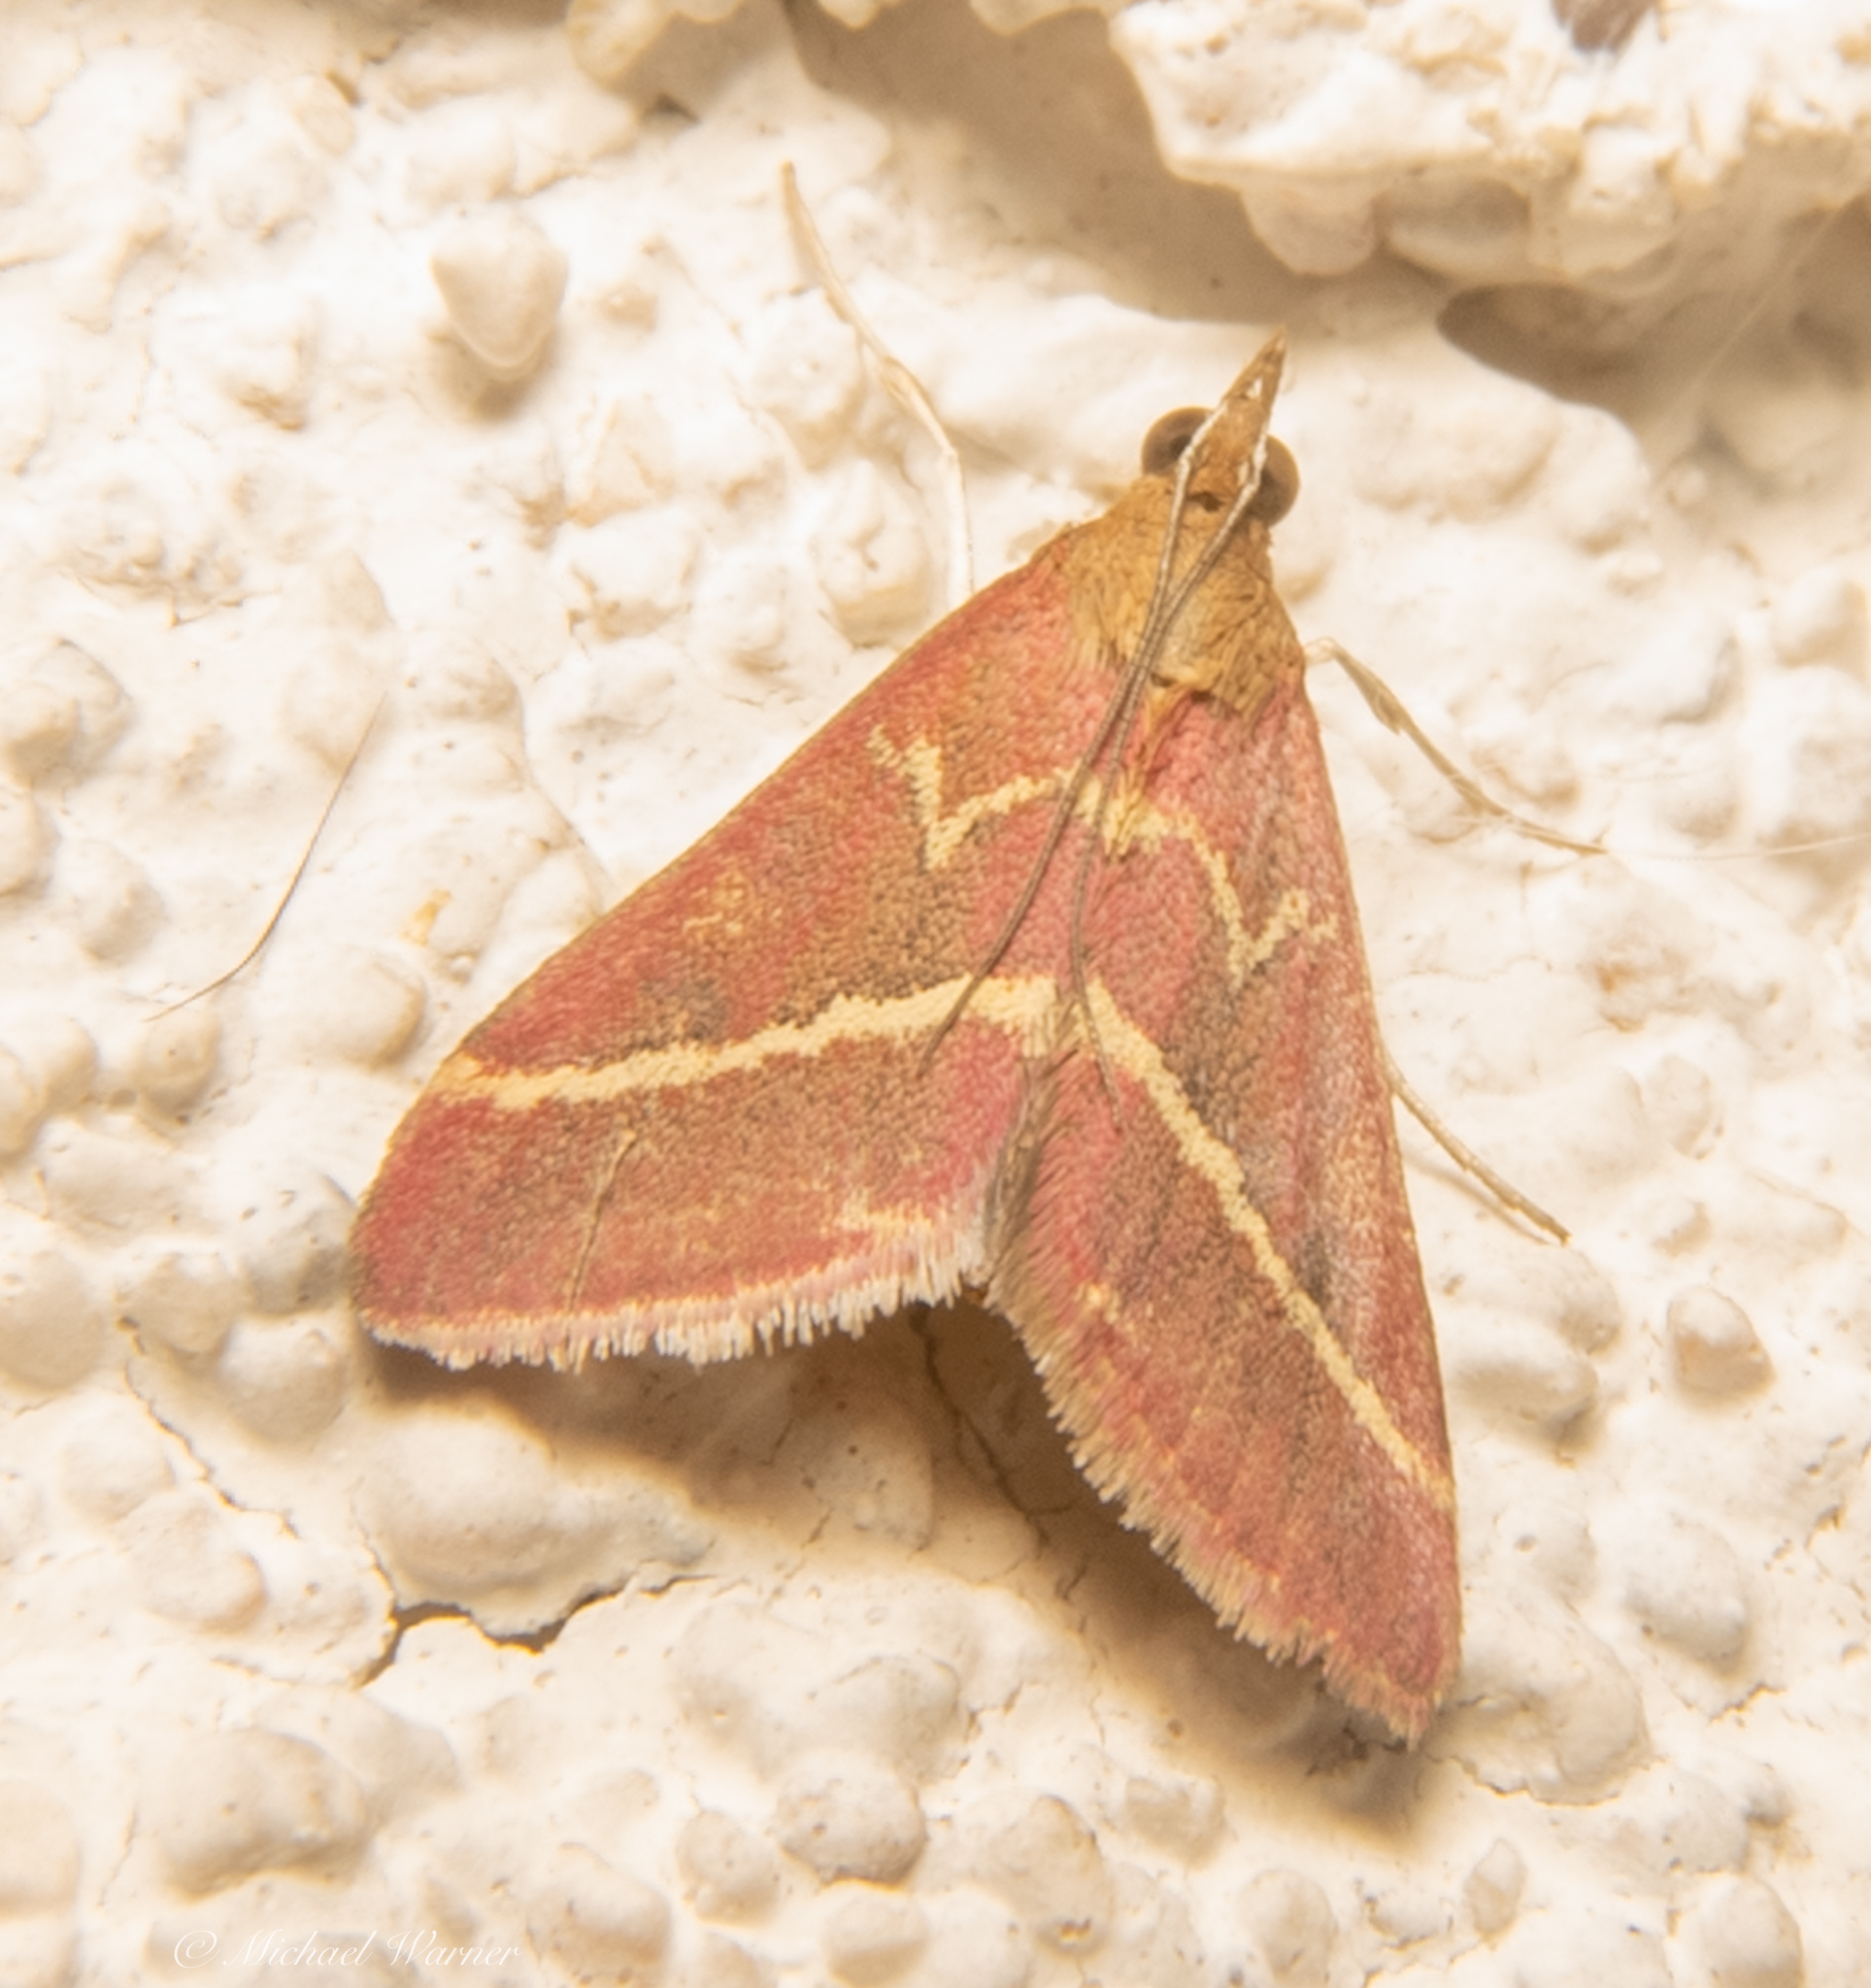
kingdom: Animalia
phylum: Arthropoda
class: Insecta
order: Lepidoptera
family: Crambidae
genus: Pyrausta
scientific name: Pyrausta volupialis
